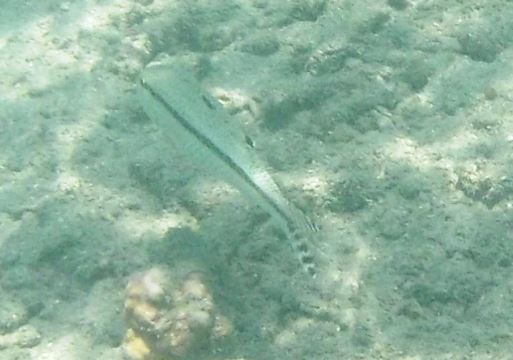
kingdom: Animalia
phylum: Chordata
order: Perciformes
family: Mullidae
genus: Upeneus
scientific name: Upeneus tragula
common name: Freckled goatfish
